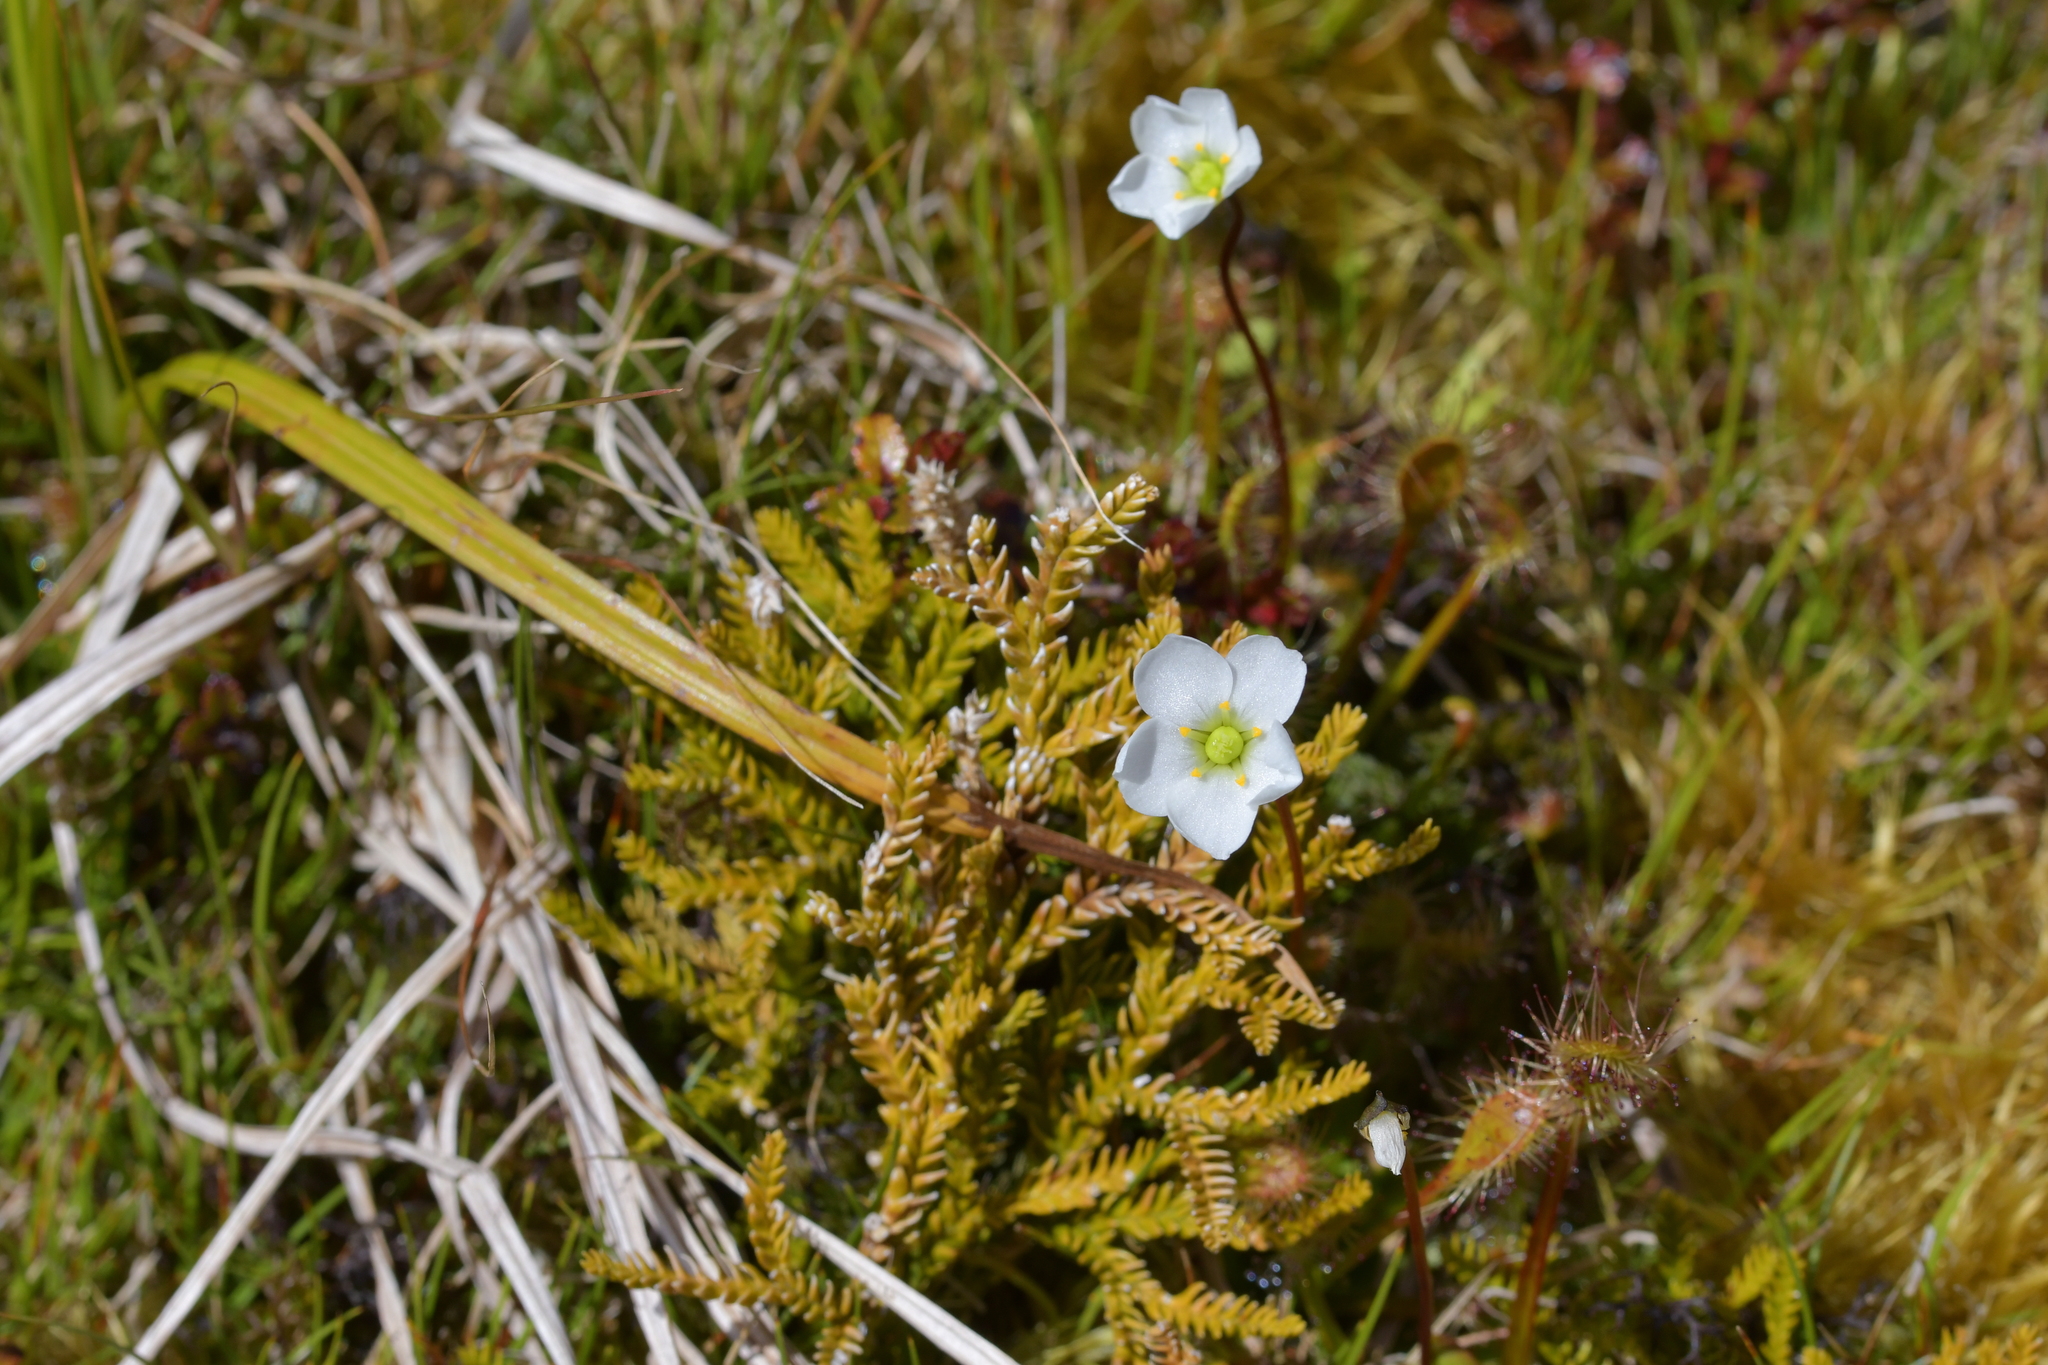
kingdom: Plantae
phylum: Tracheophyta
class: Magnoliopsida
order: Caryophyllales
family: Droseraceae
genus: Drosera
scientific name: Drosera stenopetala
